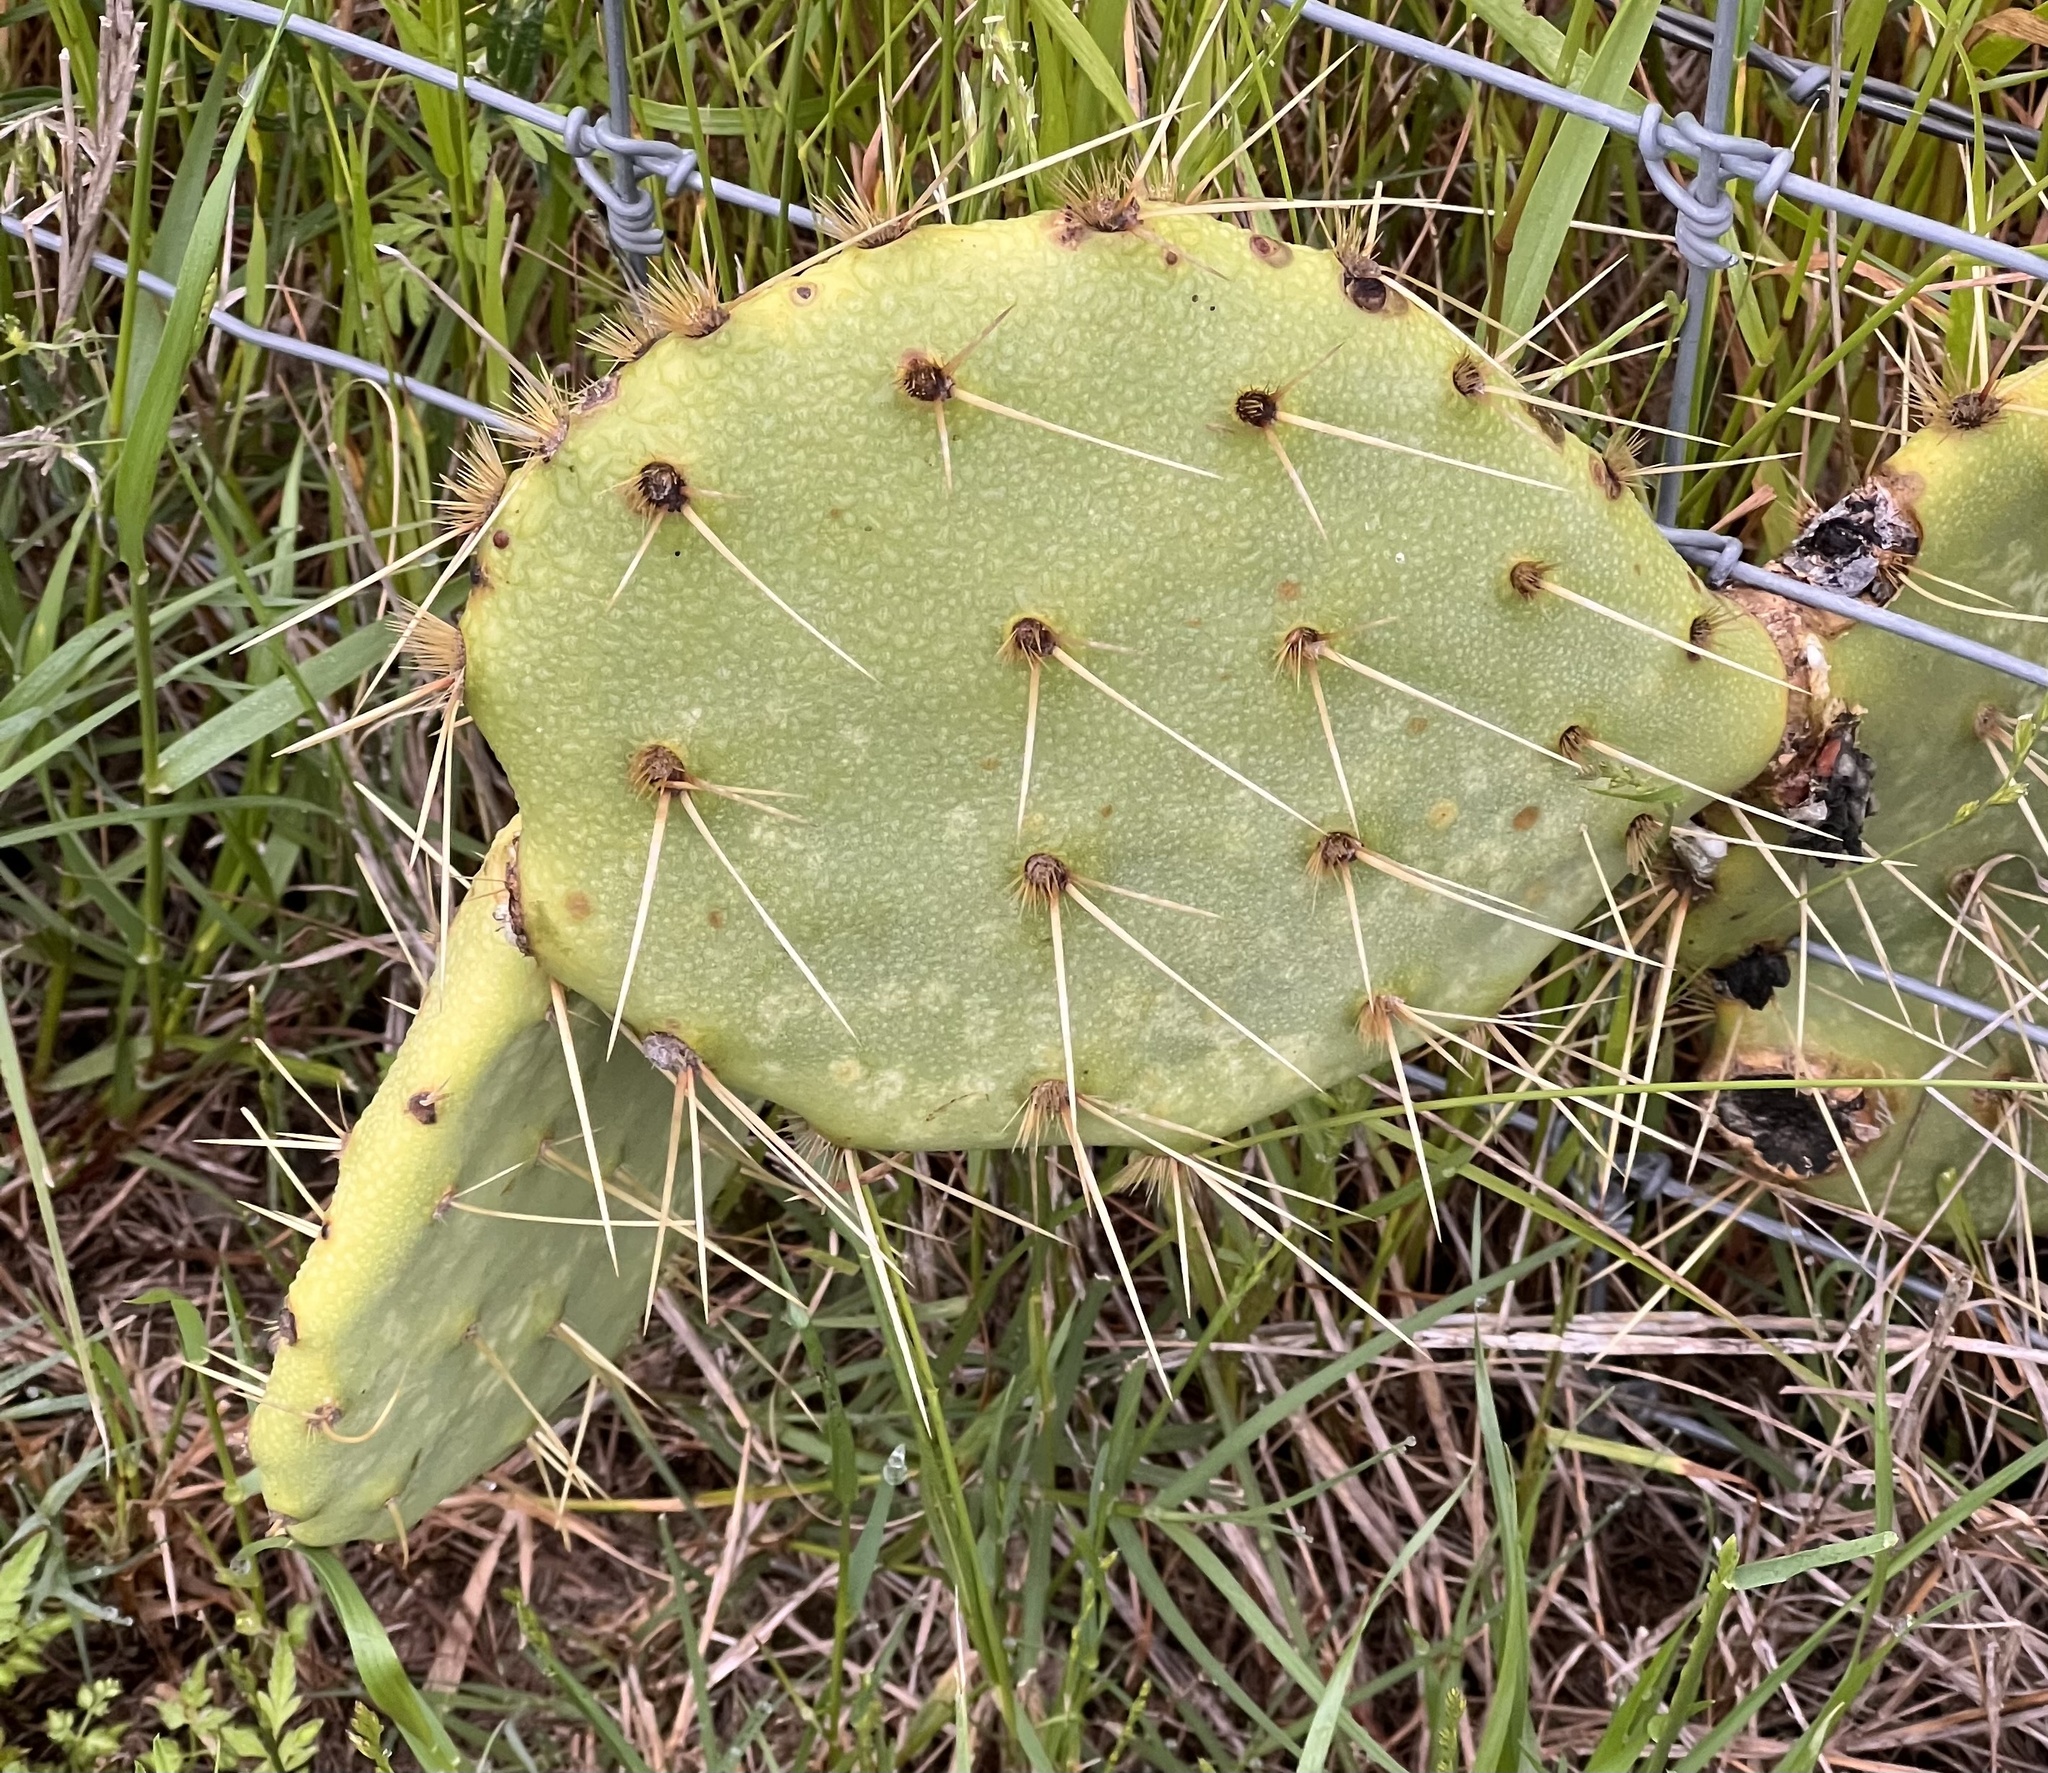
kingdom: Plantae
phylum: Tracheophyta
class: Magnoliopsida
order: Caryophyllales
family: Cactaceae
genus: Opuntia
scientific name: Opuntia engelmannii
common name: Cactus-apple
